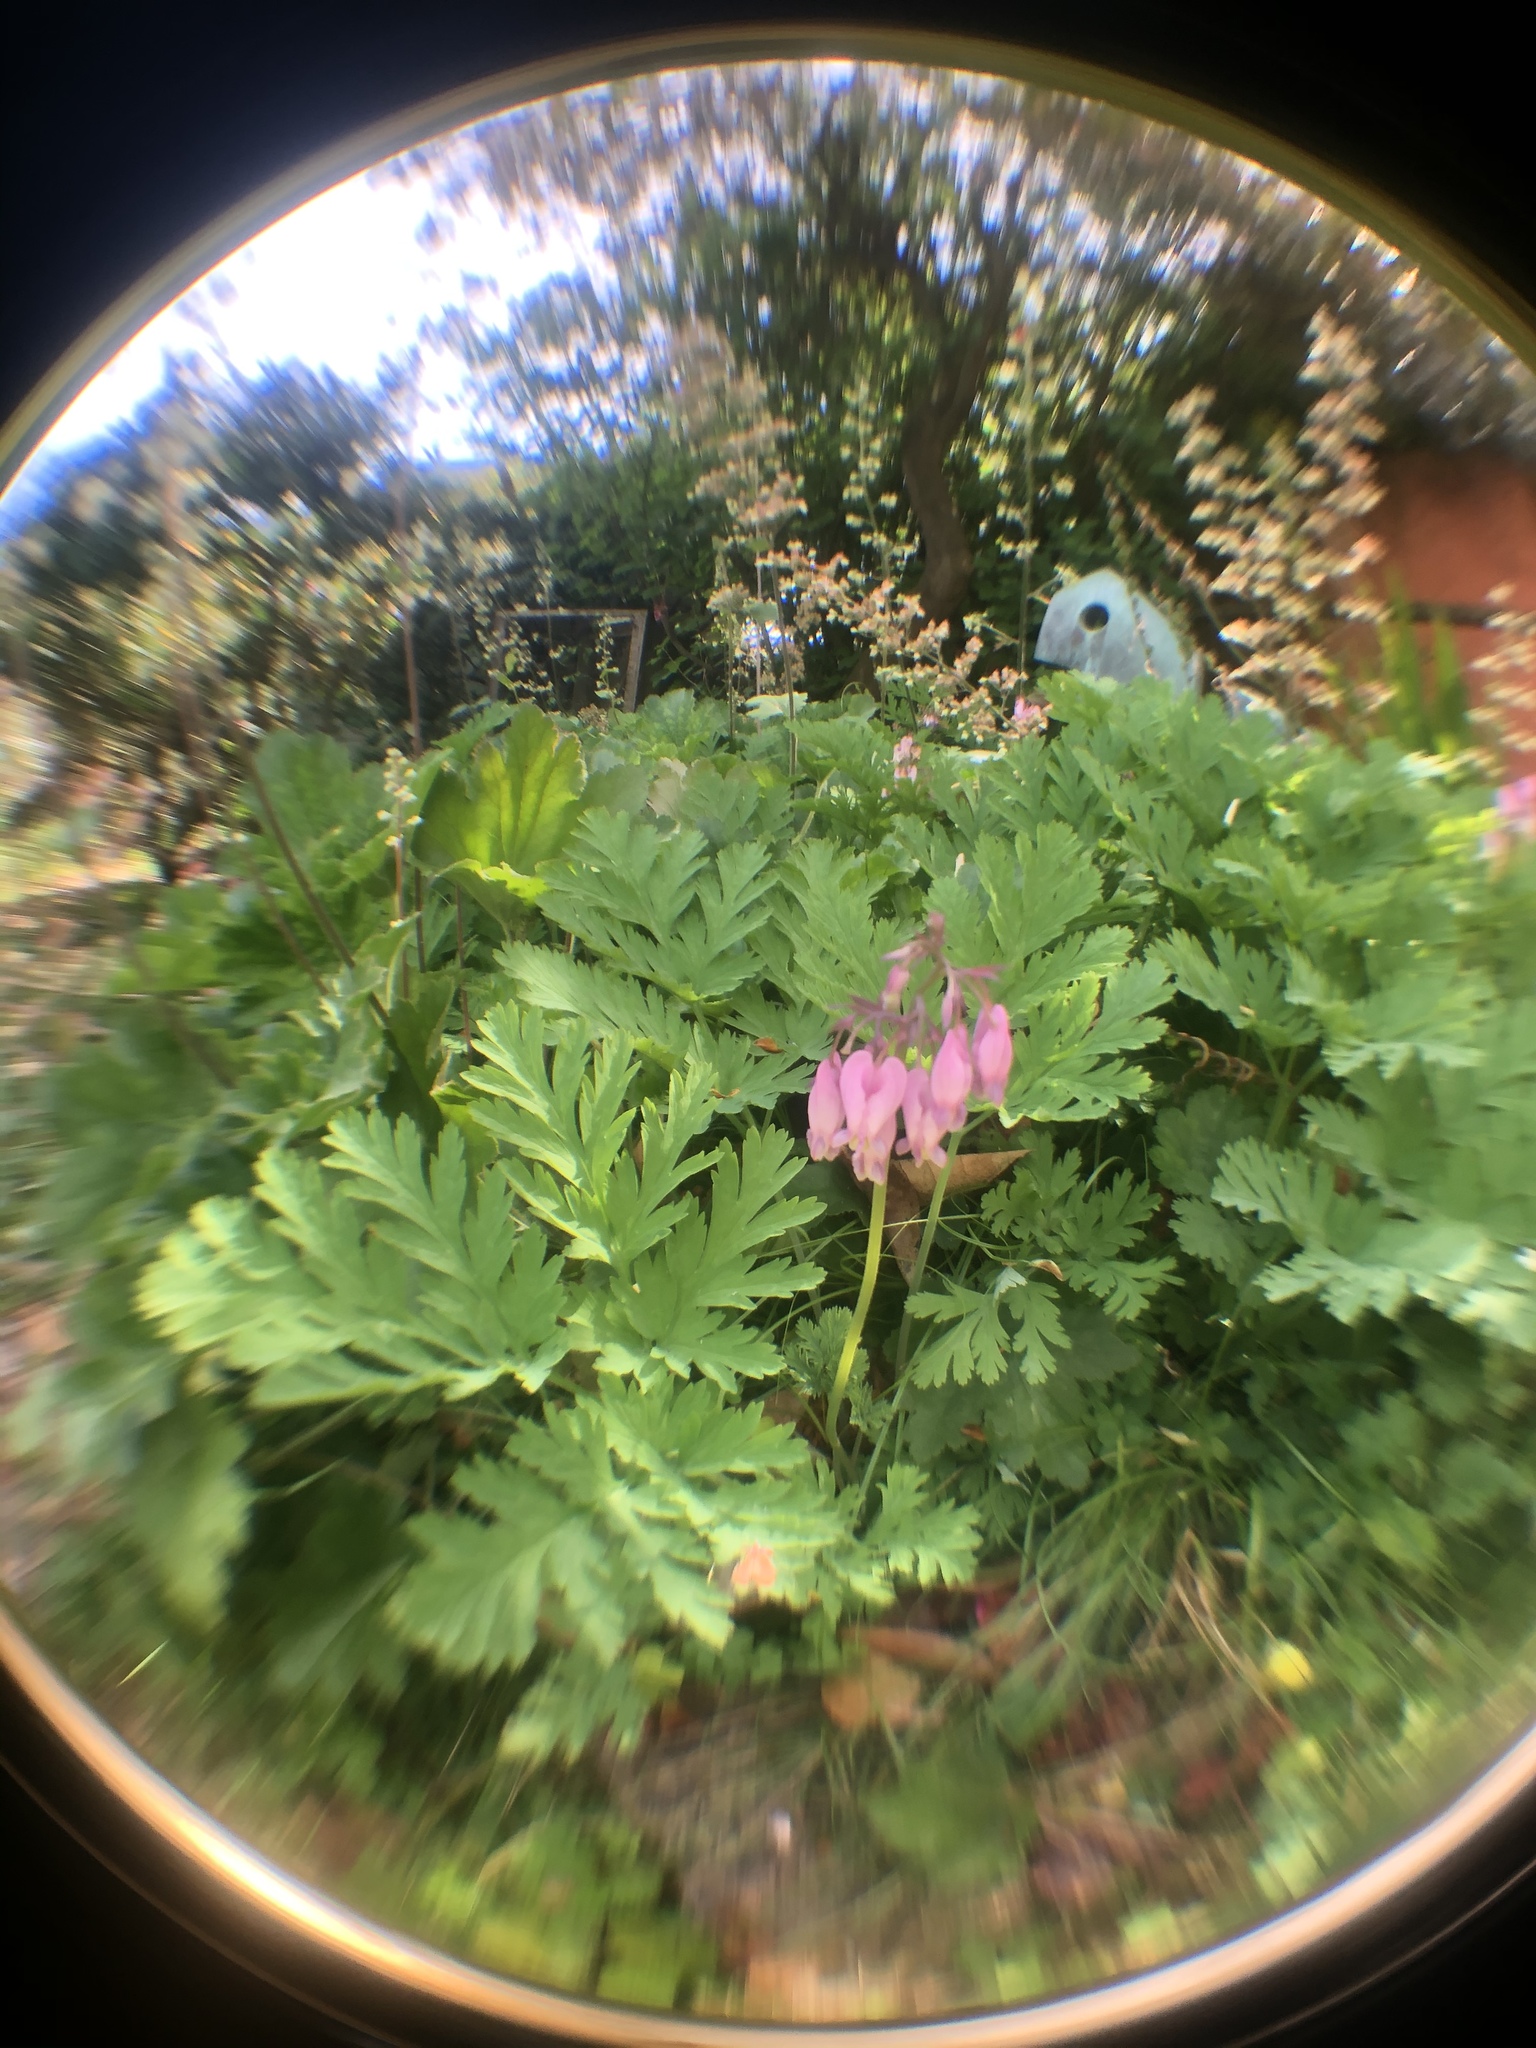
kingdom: Plantae
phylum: Tracheophyta
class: Magnoliopsida
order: Ranunculales
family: Papaveraceae
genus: Dicentra
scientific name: Dicentra formosa
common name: Bleeding-heart
